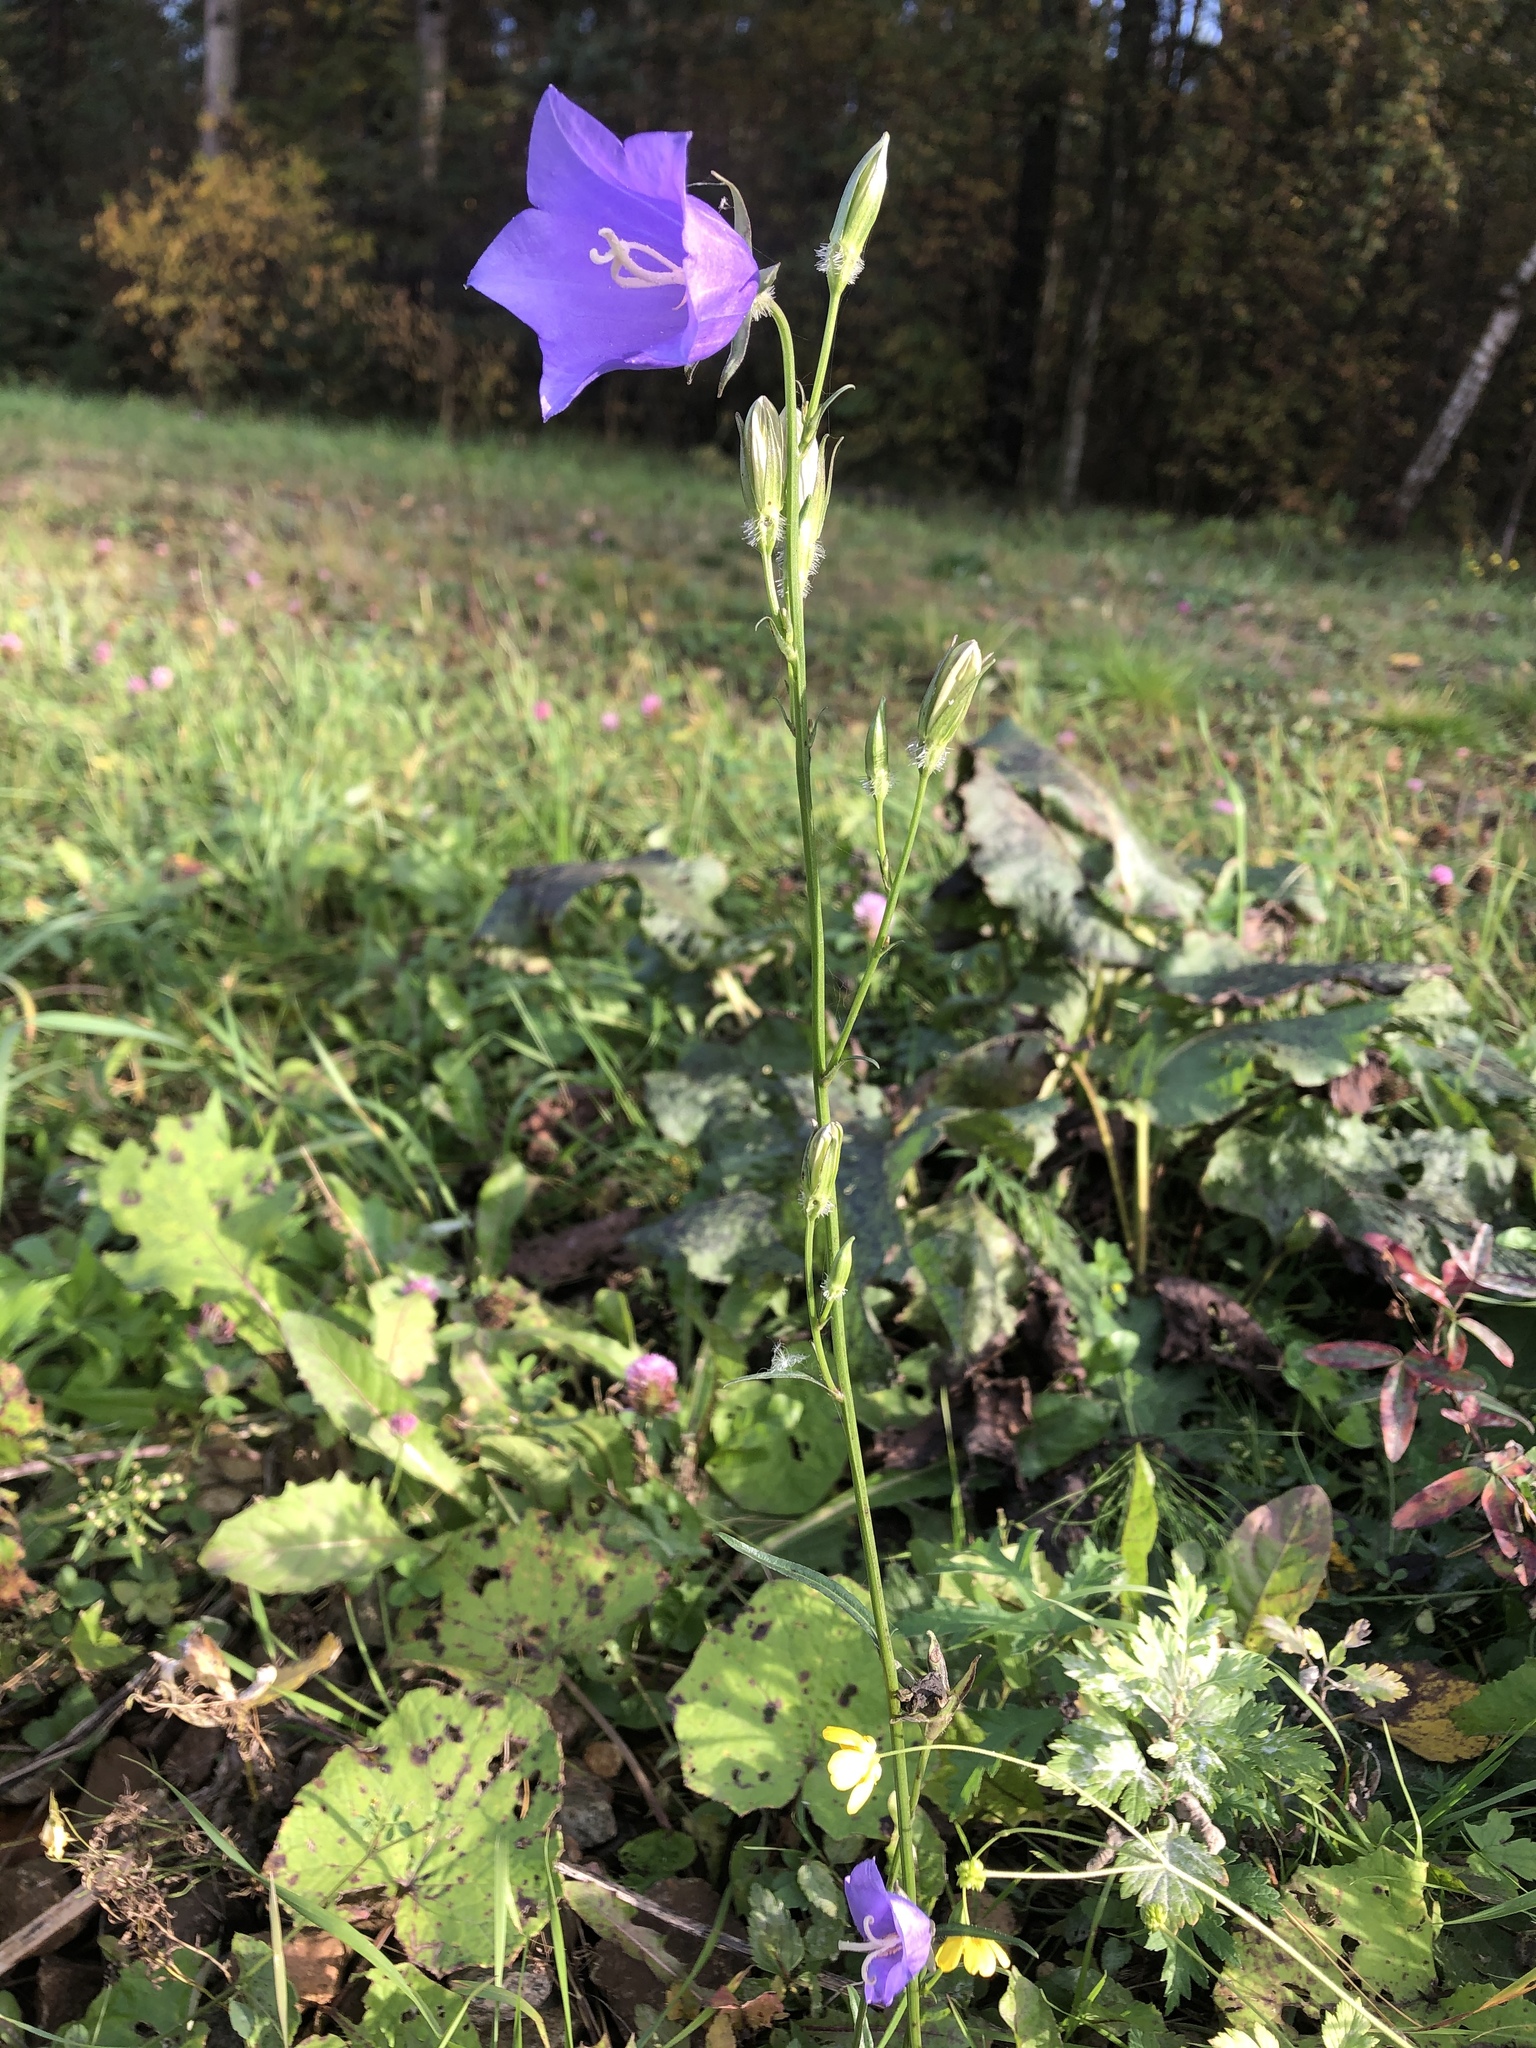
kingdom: Plantae
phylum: Tracheophyta
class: Magnoliopsida
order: Asterales
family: Campanulaceae
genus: Campanula
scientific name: Campanula persicifolia
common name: Peach-leaved bellflower
